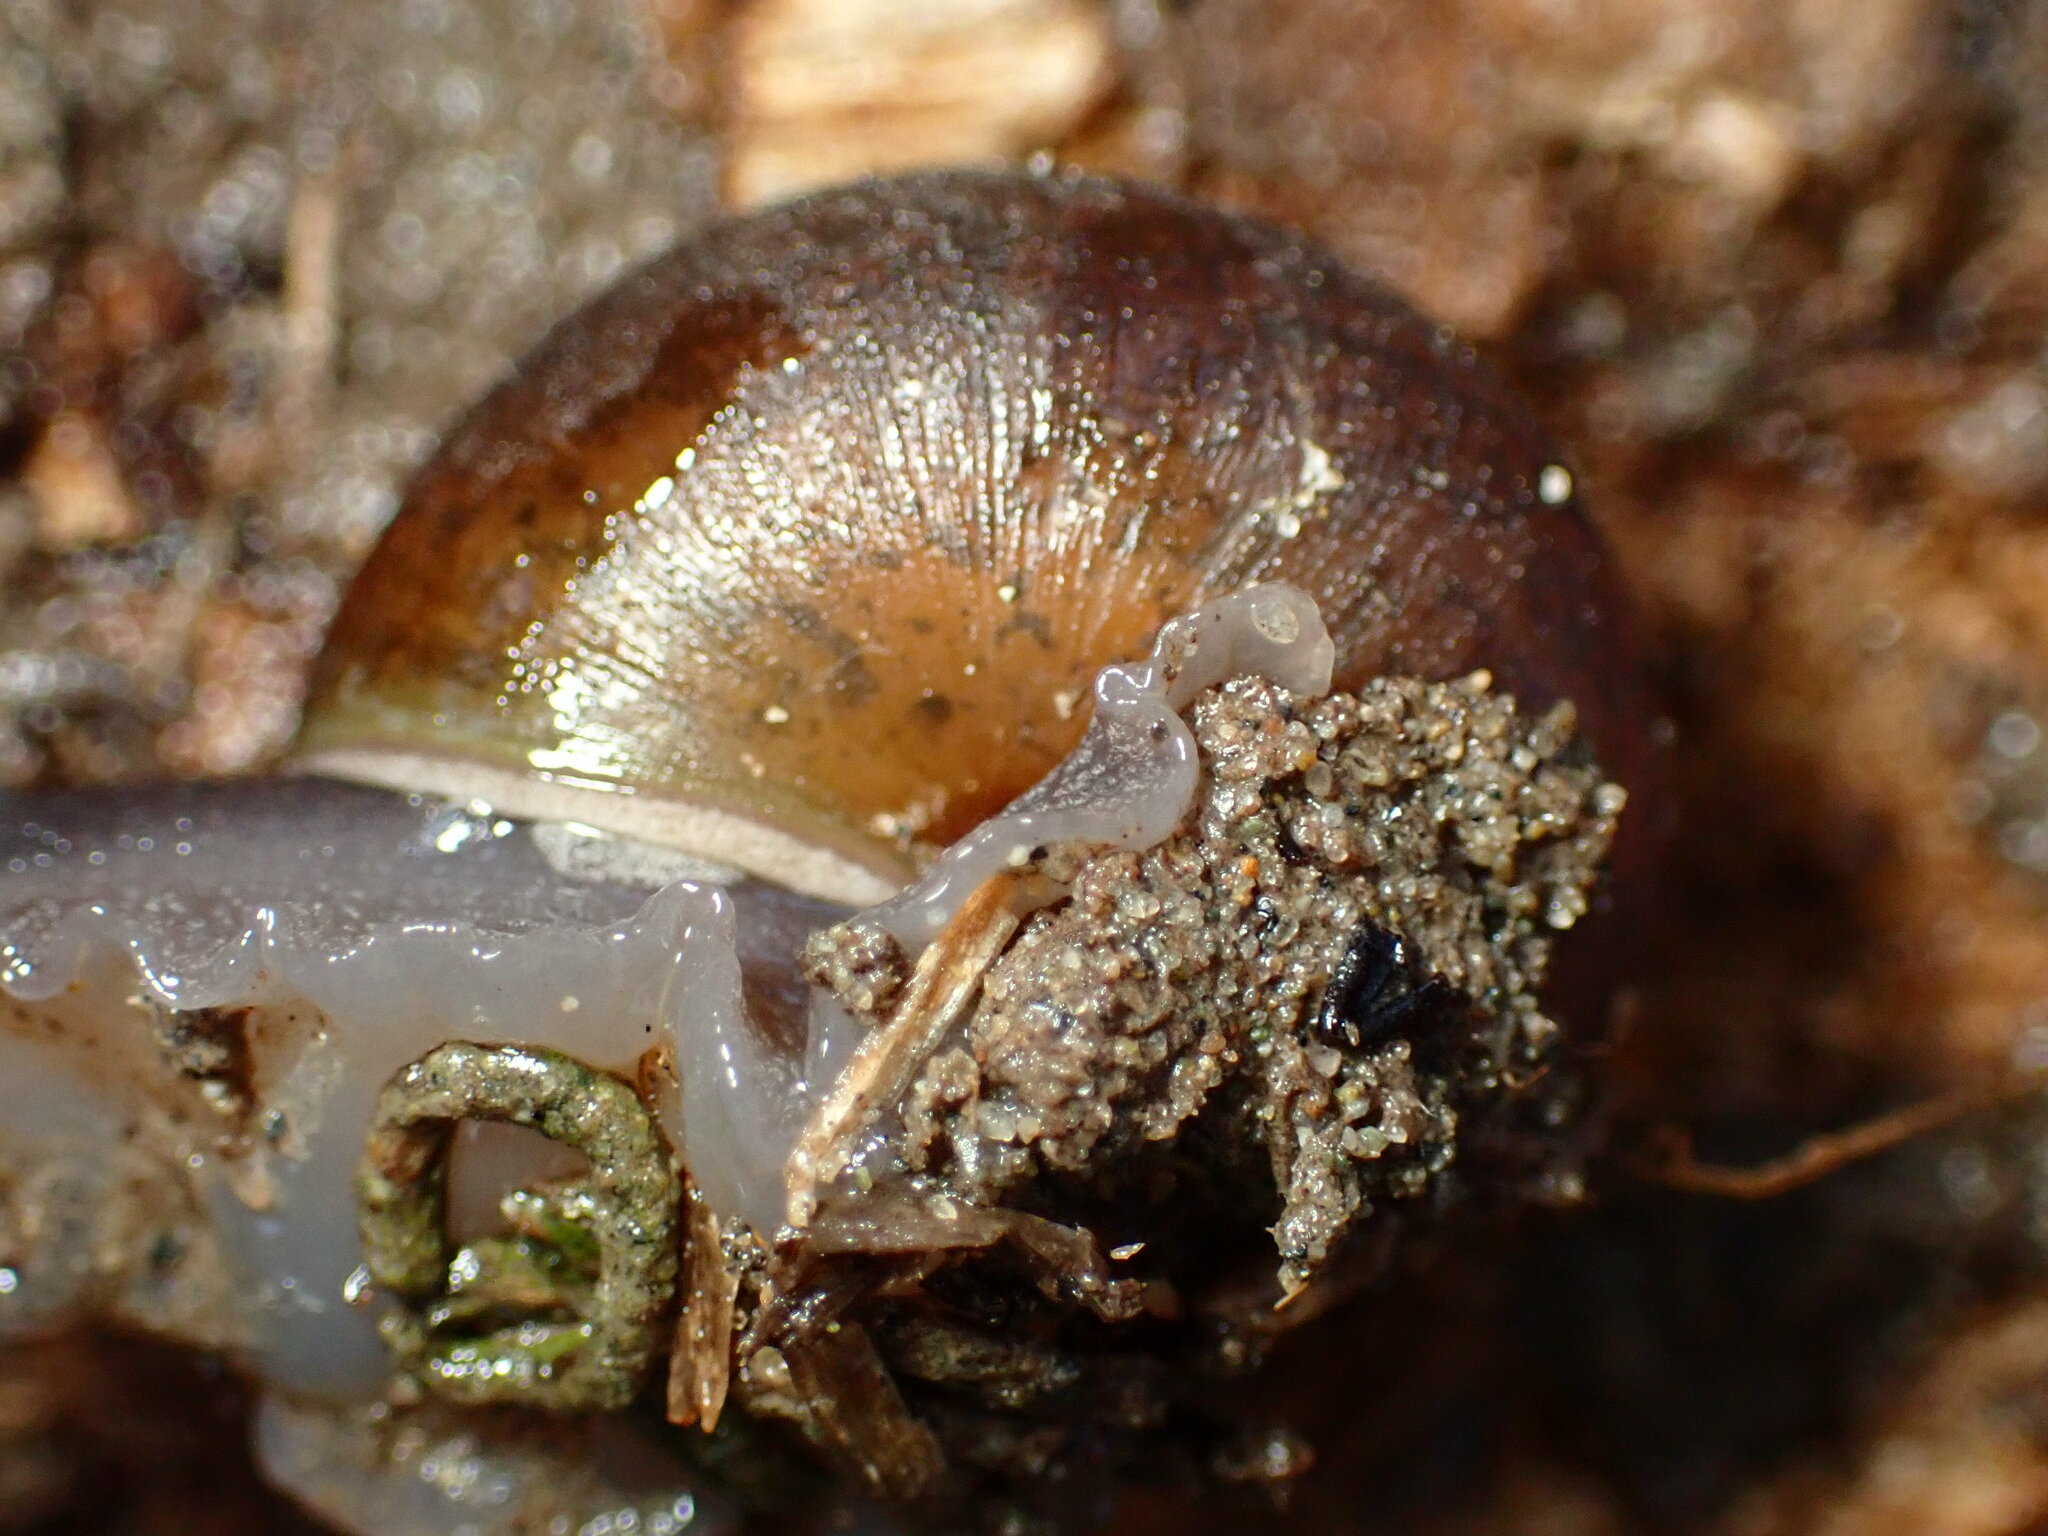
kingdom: Animalia
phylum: Mollusca
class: Gastropoda
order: Stylommatophora
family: Xanthonychidae
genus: Helminthoglypta
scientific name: Helminthoglypta walkeriana
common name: Banded dune snail
